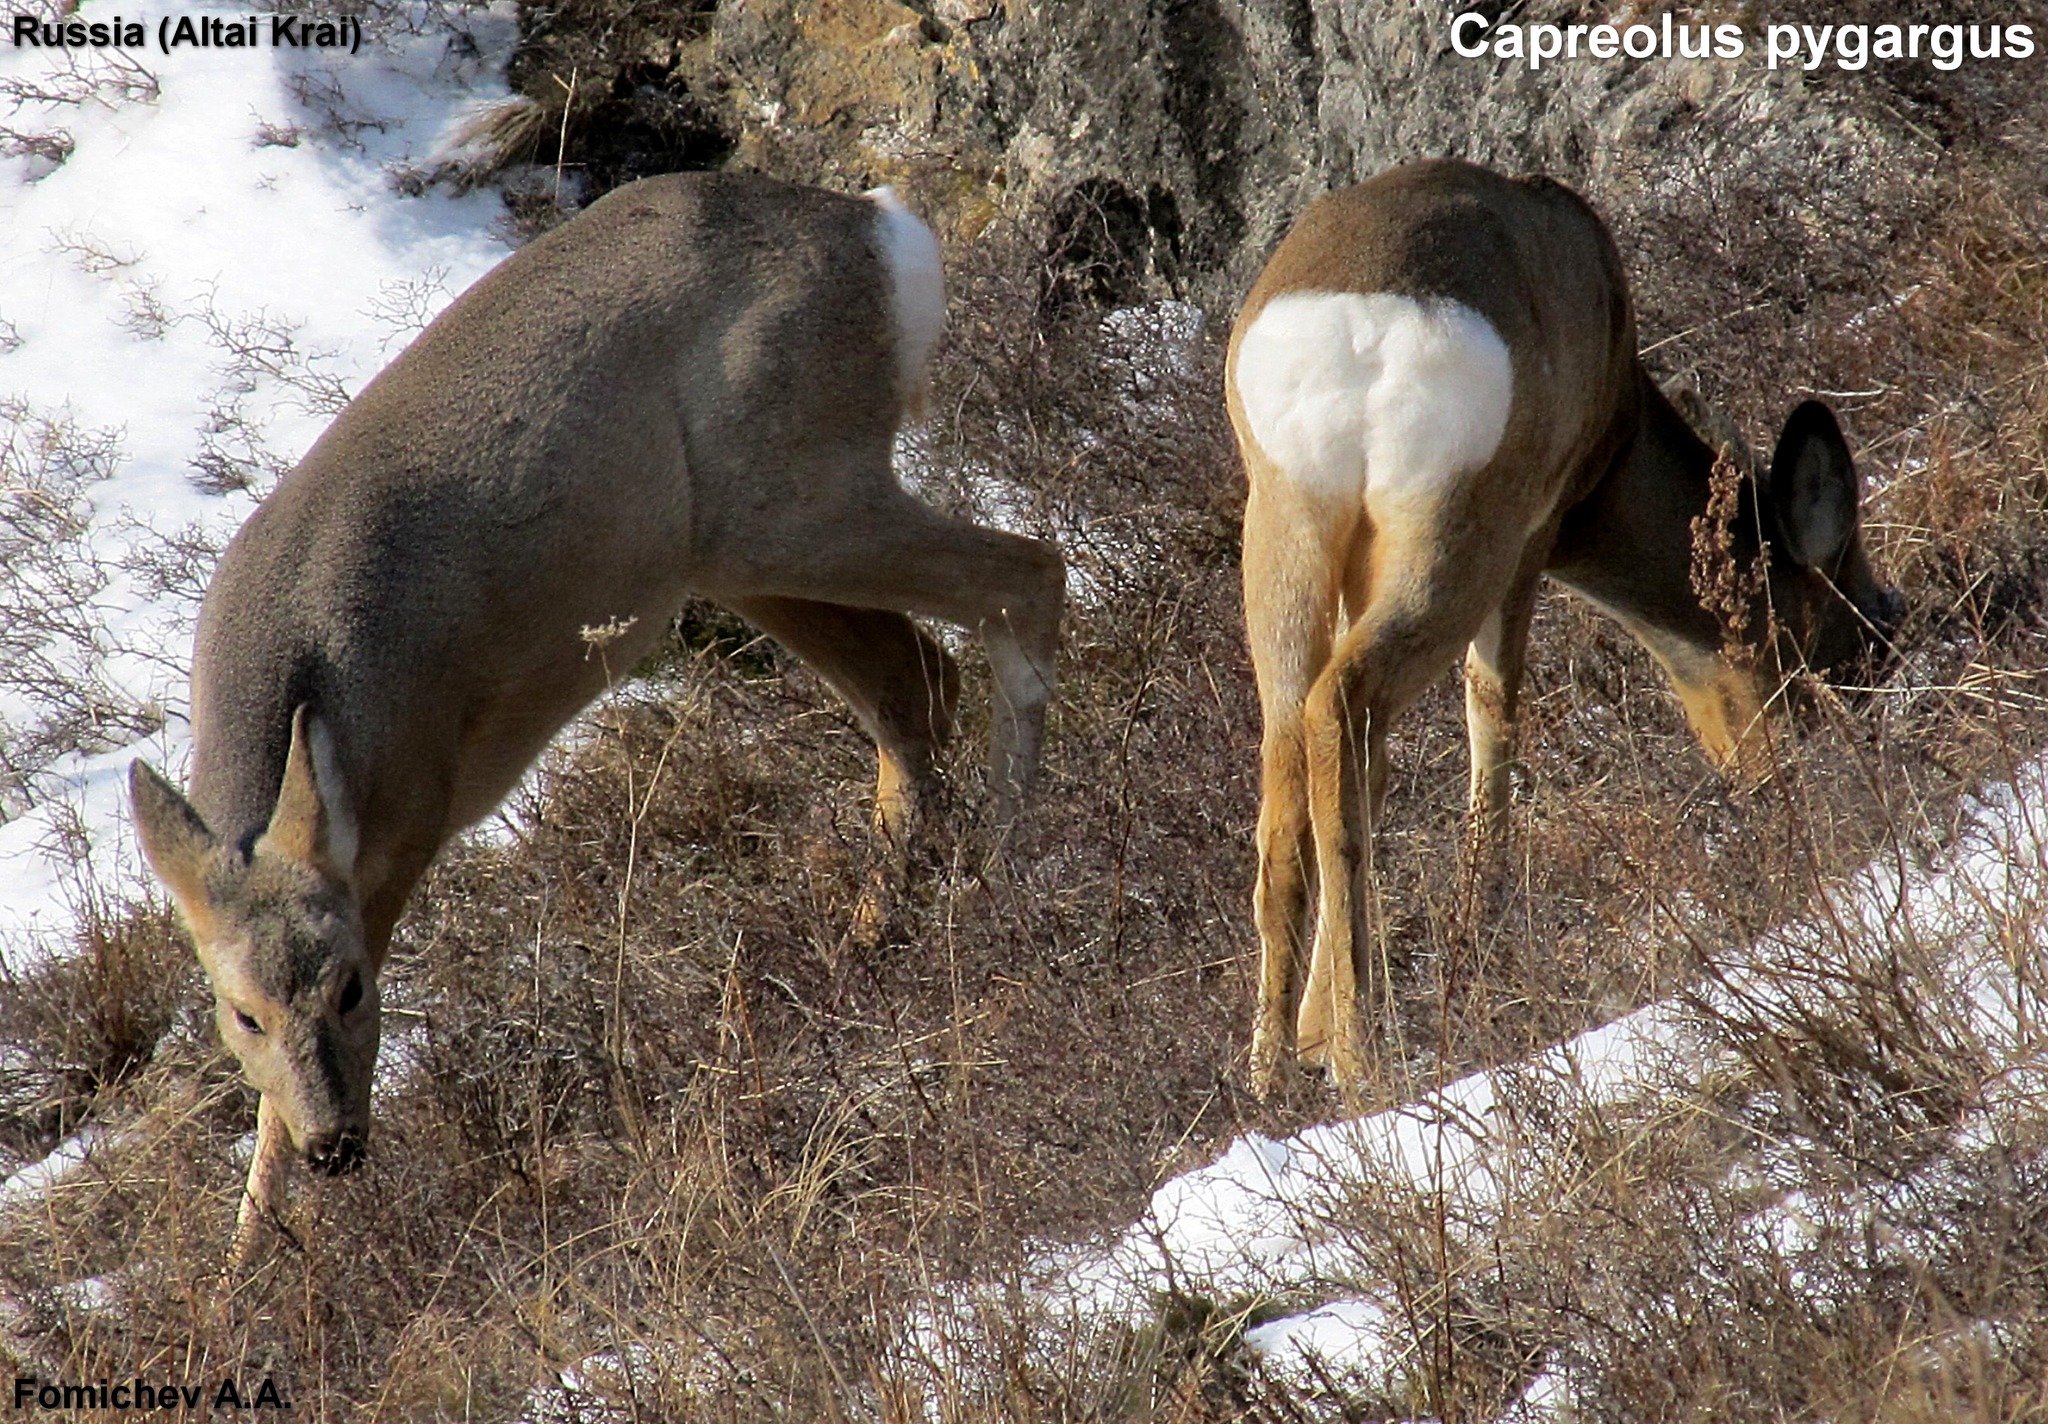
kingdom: Animalia
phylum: Chordata
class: Mammalia
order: Artiodactyla
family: Cervidae
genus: Capreolus
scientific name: Capreolus pygargus
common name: Siberian roe
